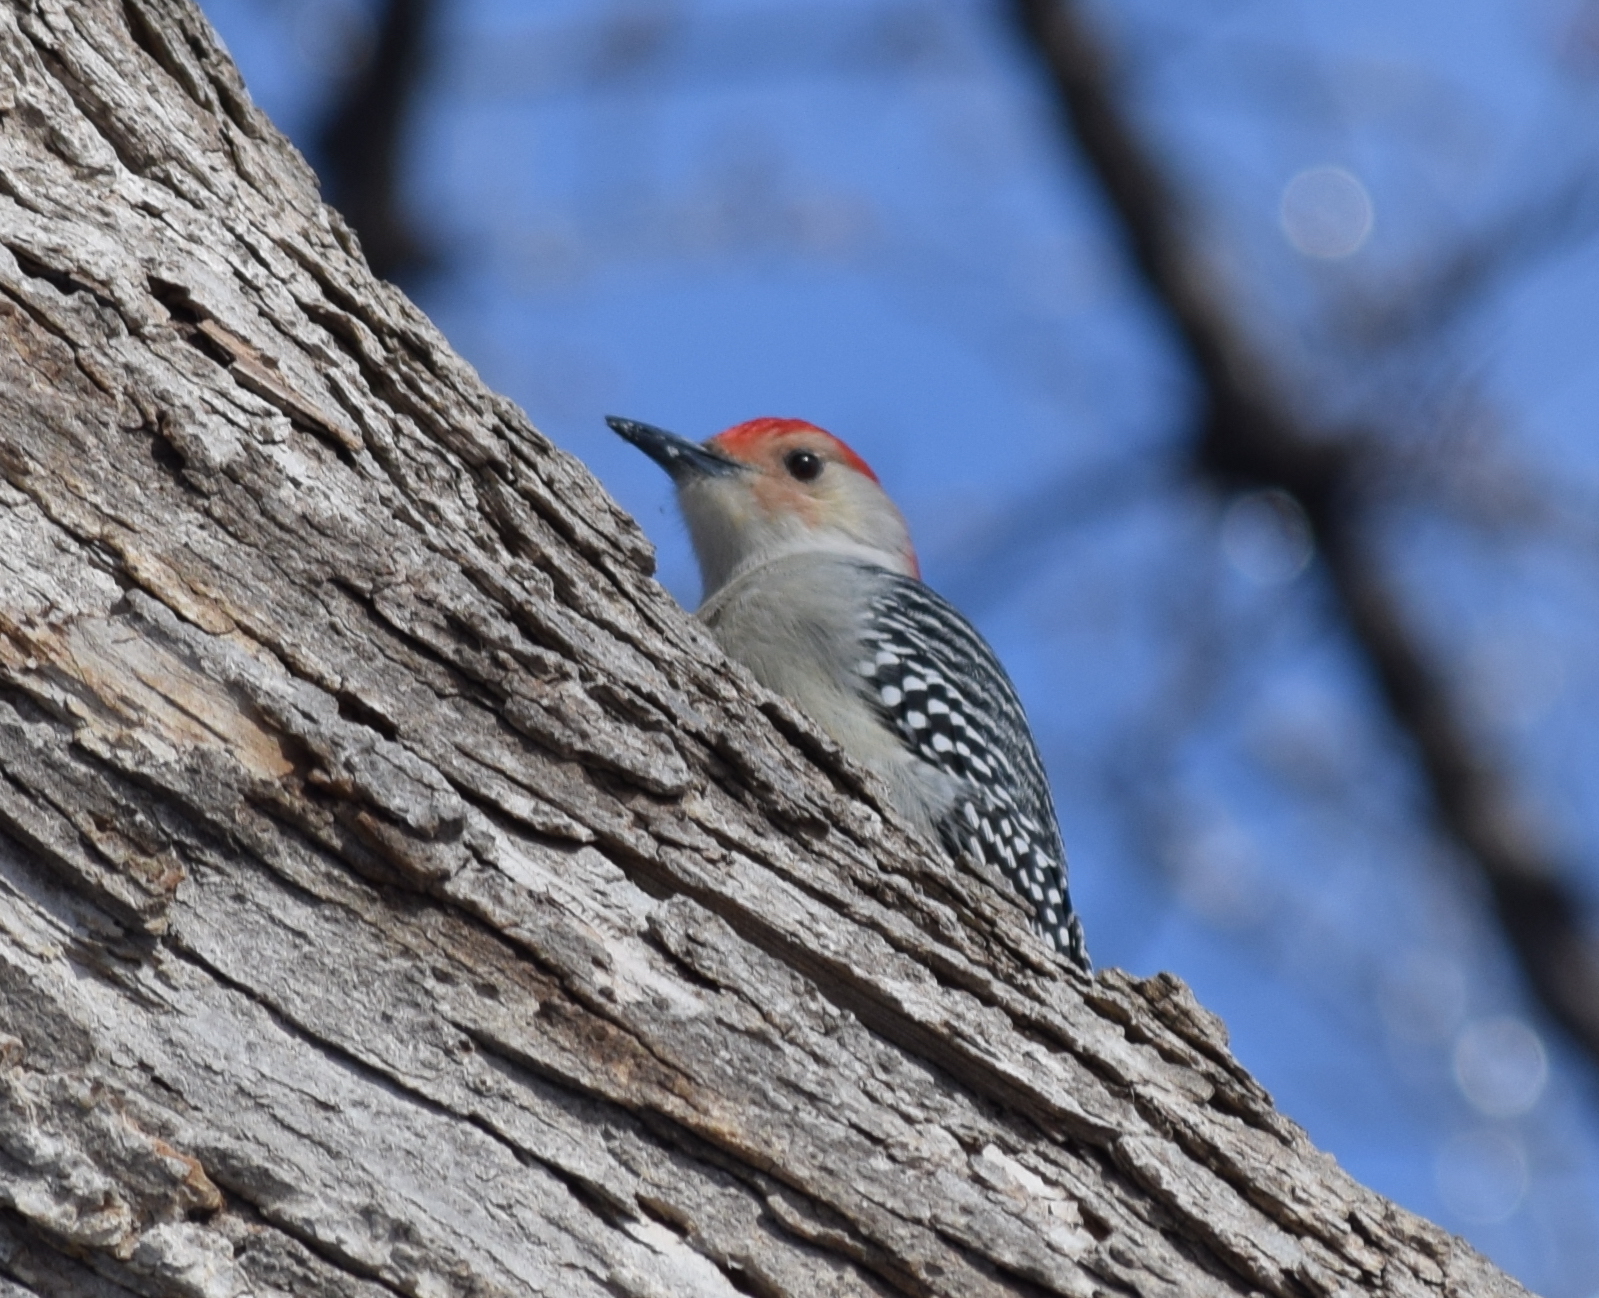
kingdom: Animalia
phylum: Chordata
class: Aves
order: Piciformes
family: Picidae
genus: Melanerpes
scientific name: Melanerpes carolinus
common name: Red-bellied woodpecker
